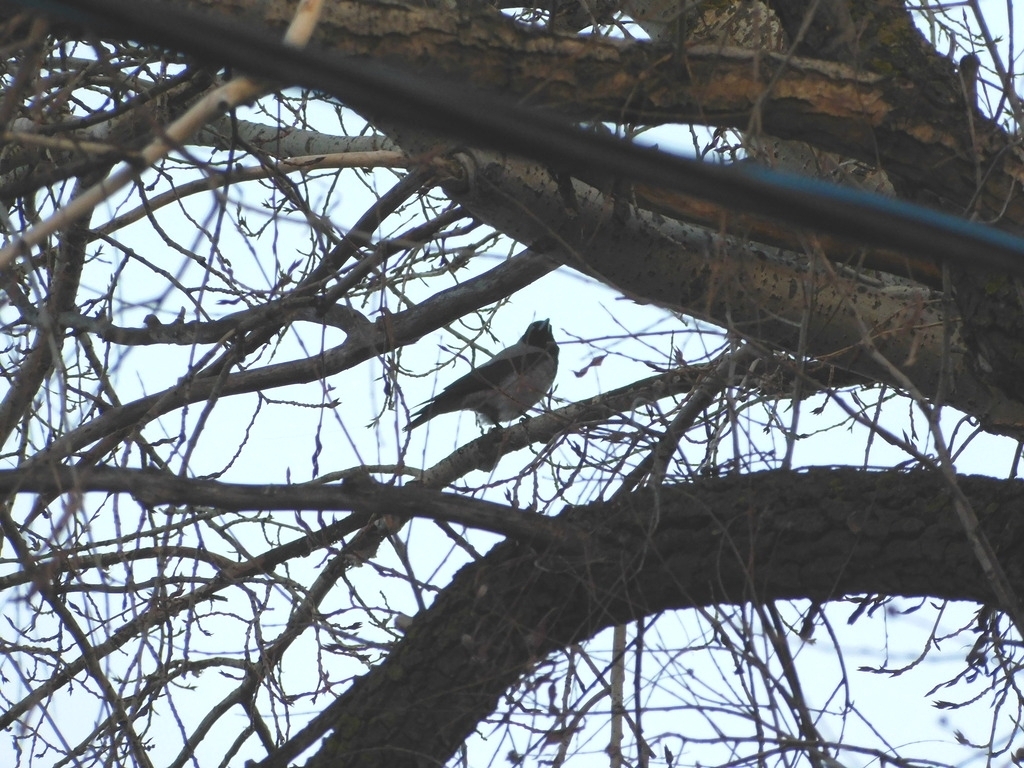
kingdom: Animalia
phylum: Chordata
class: Aves
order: Passeriformes
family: Corvidae
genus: Corvus
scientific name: Corvus cornix
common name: Hooded crow
